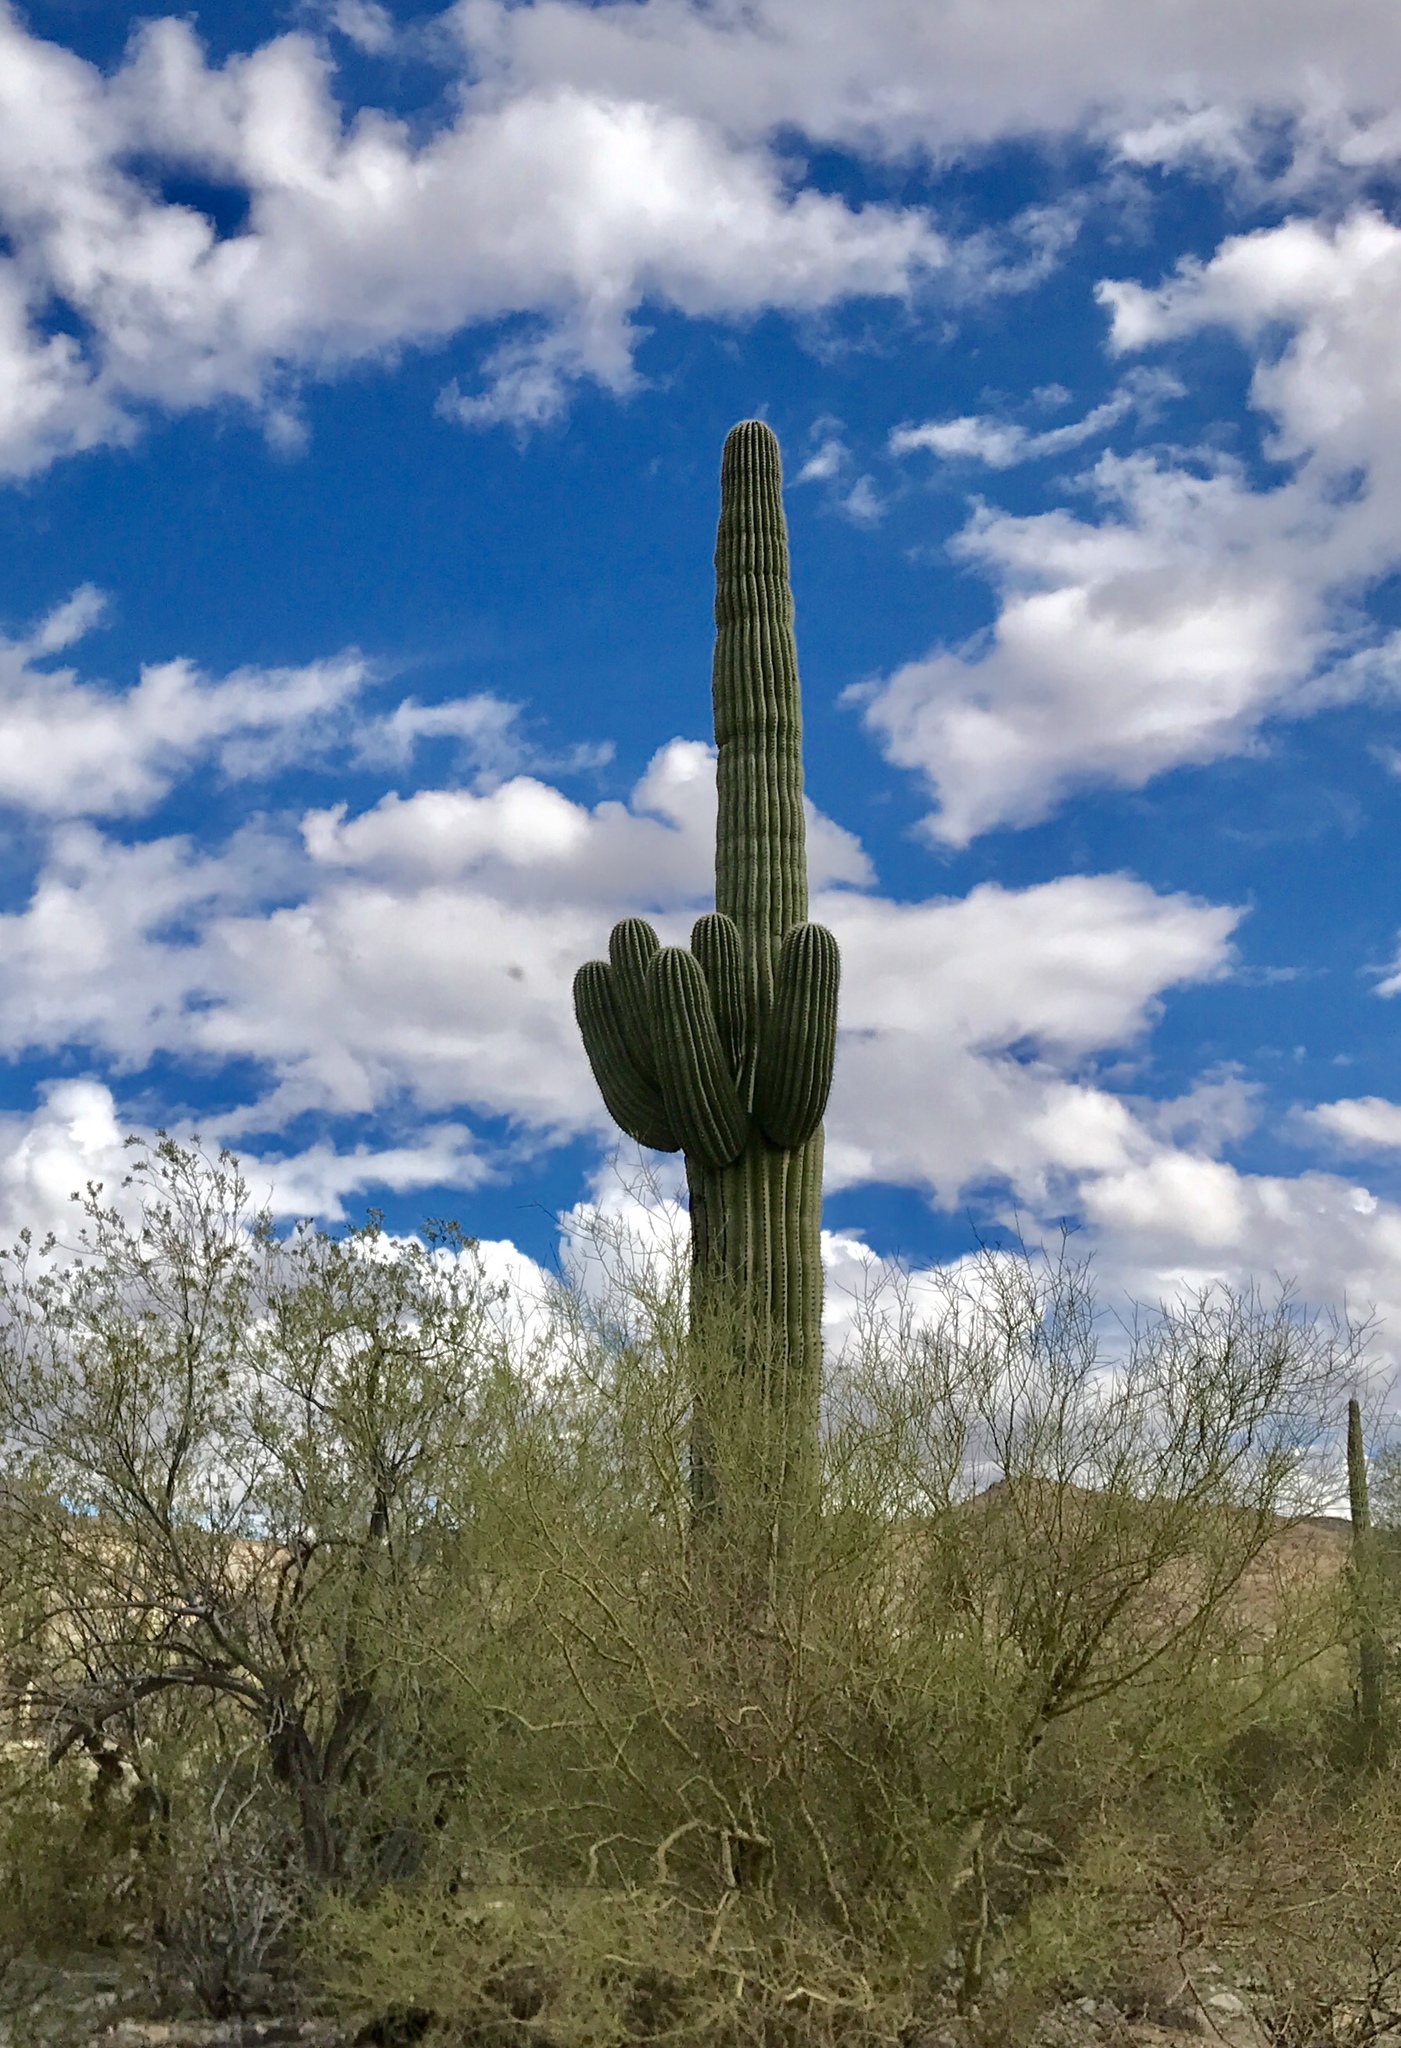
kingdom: Plantae
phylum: Tracheophyta
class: Magnoliopsida
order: Caryophyllales
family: Cactaceae
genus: Carnegiea
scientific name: Carnegiea gigantea
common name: Saguaro
